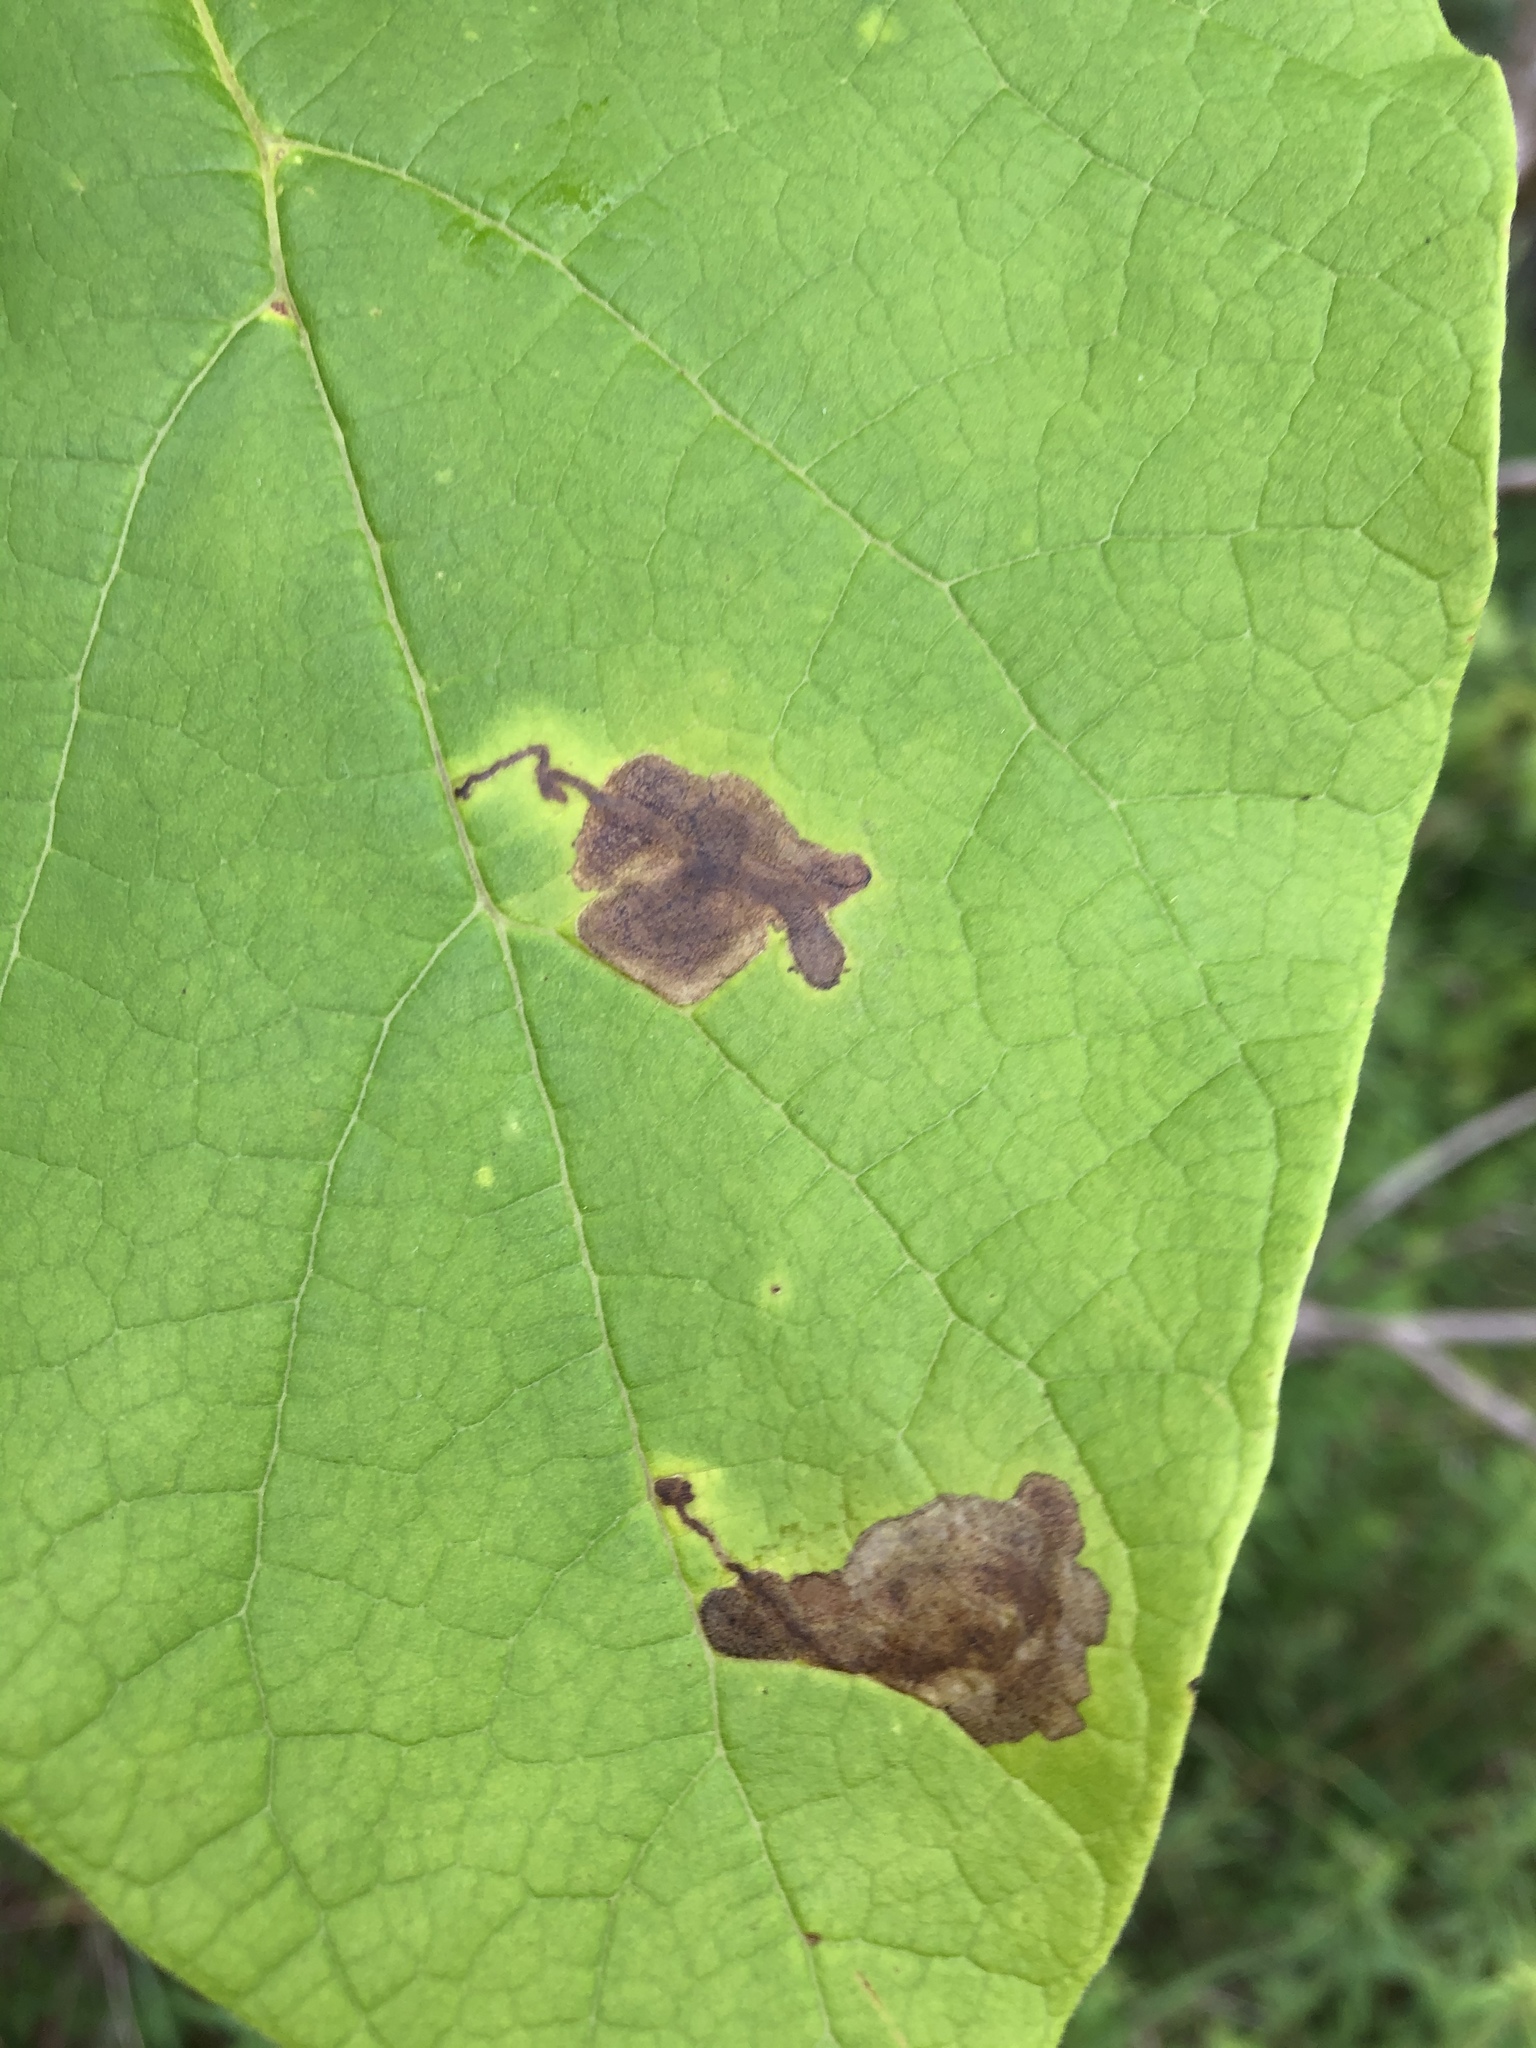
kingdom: Animalia
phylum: Arthropoda
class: Insecta
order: Diptera
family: Agromyzidae
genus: Amauromyza
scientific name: Amauromyza pleuralis
